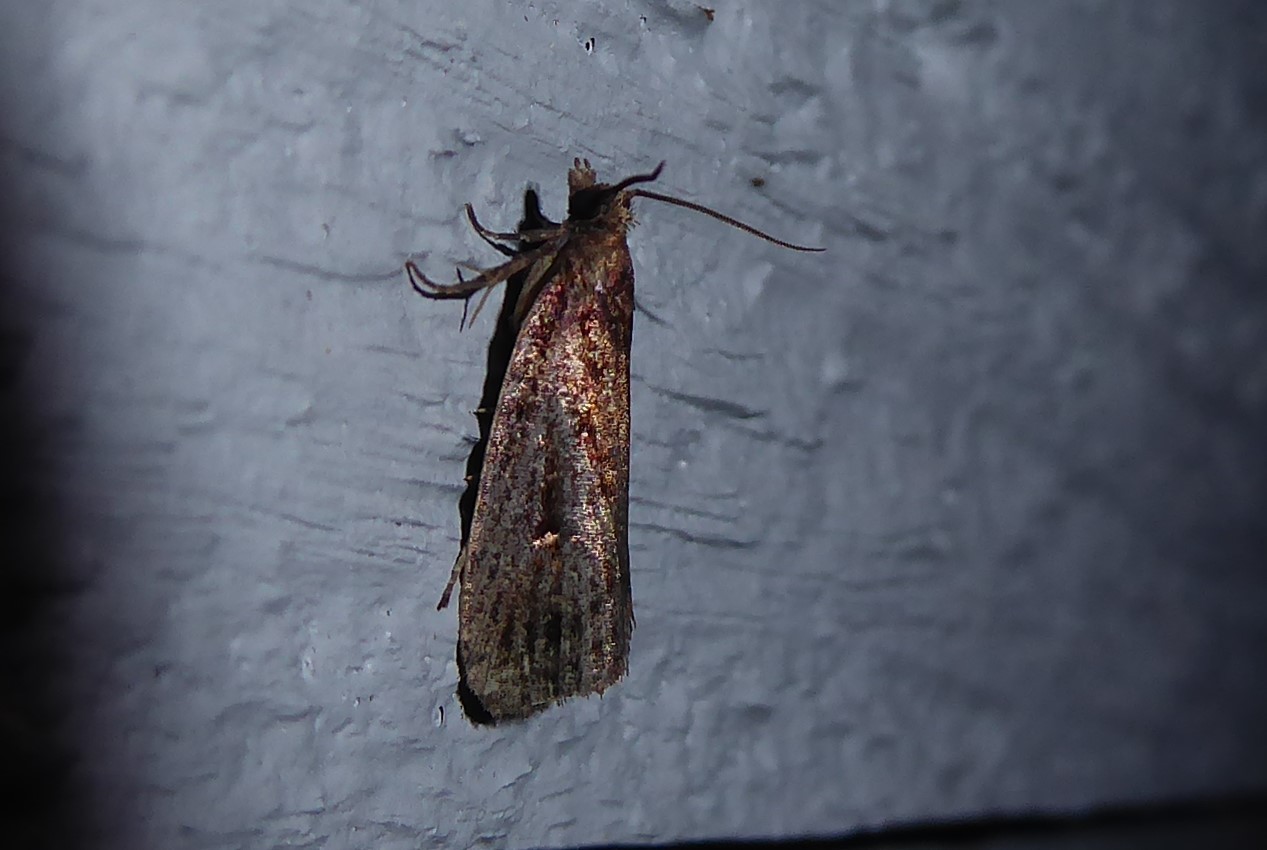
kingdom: Animalia
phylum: Arthropoda
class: Insecta
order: Lepidoptera
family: Tortricidae
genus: Cryptaspasma
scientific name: Cryptaspasma querula
